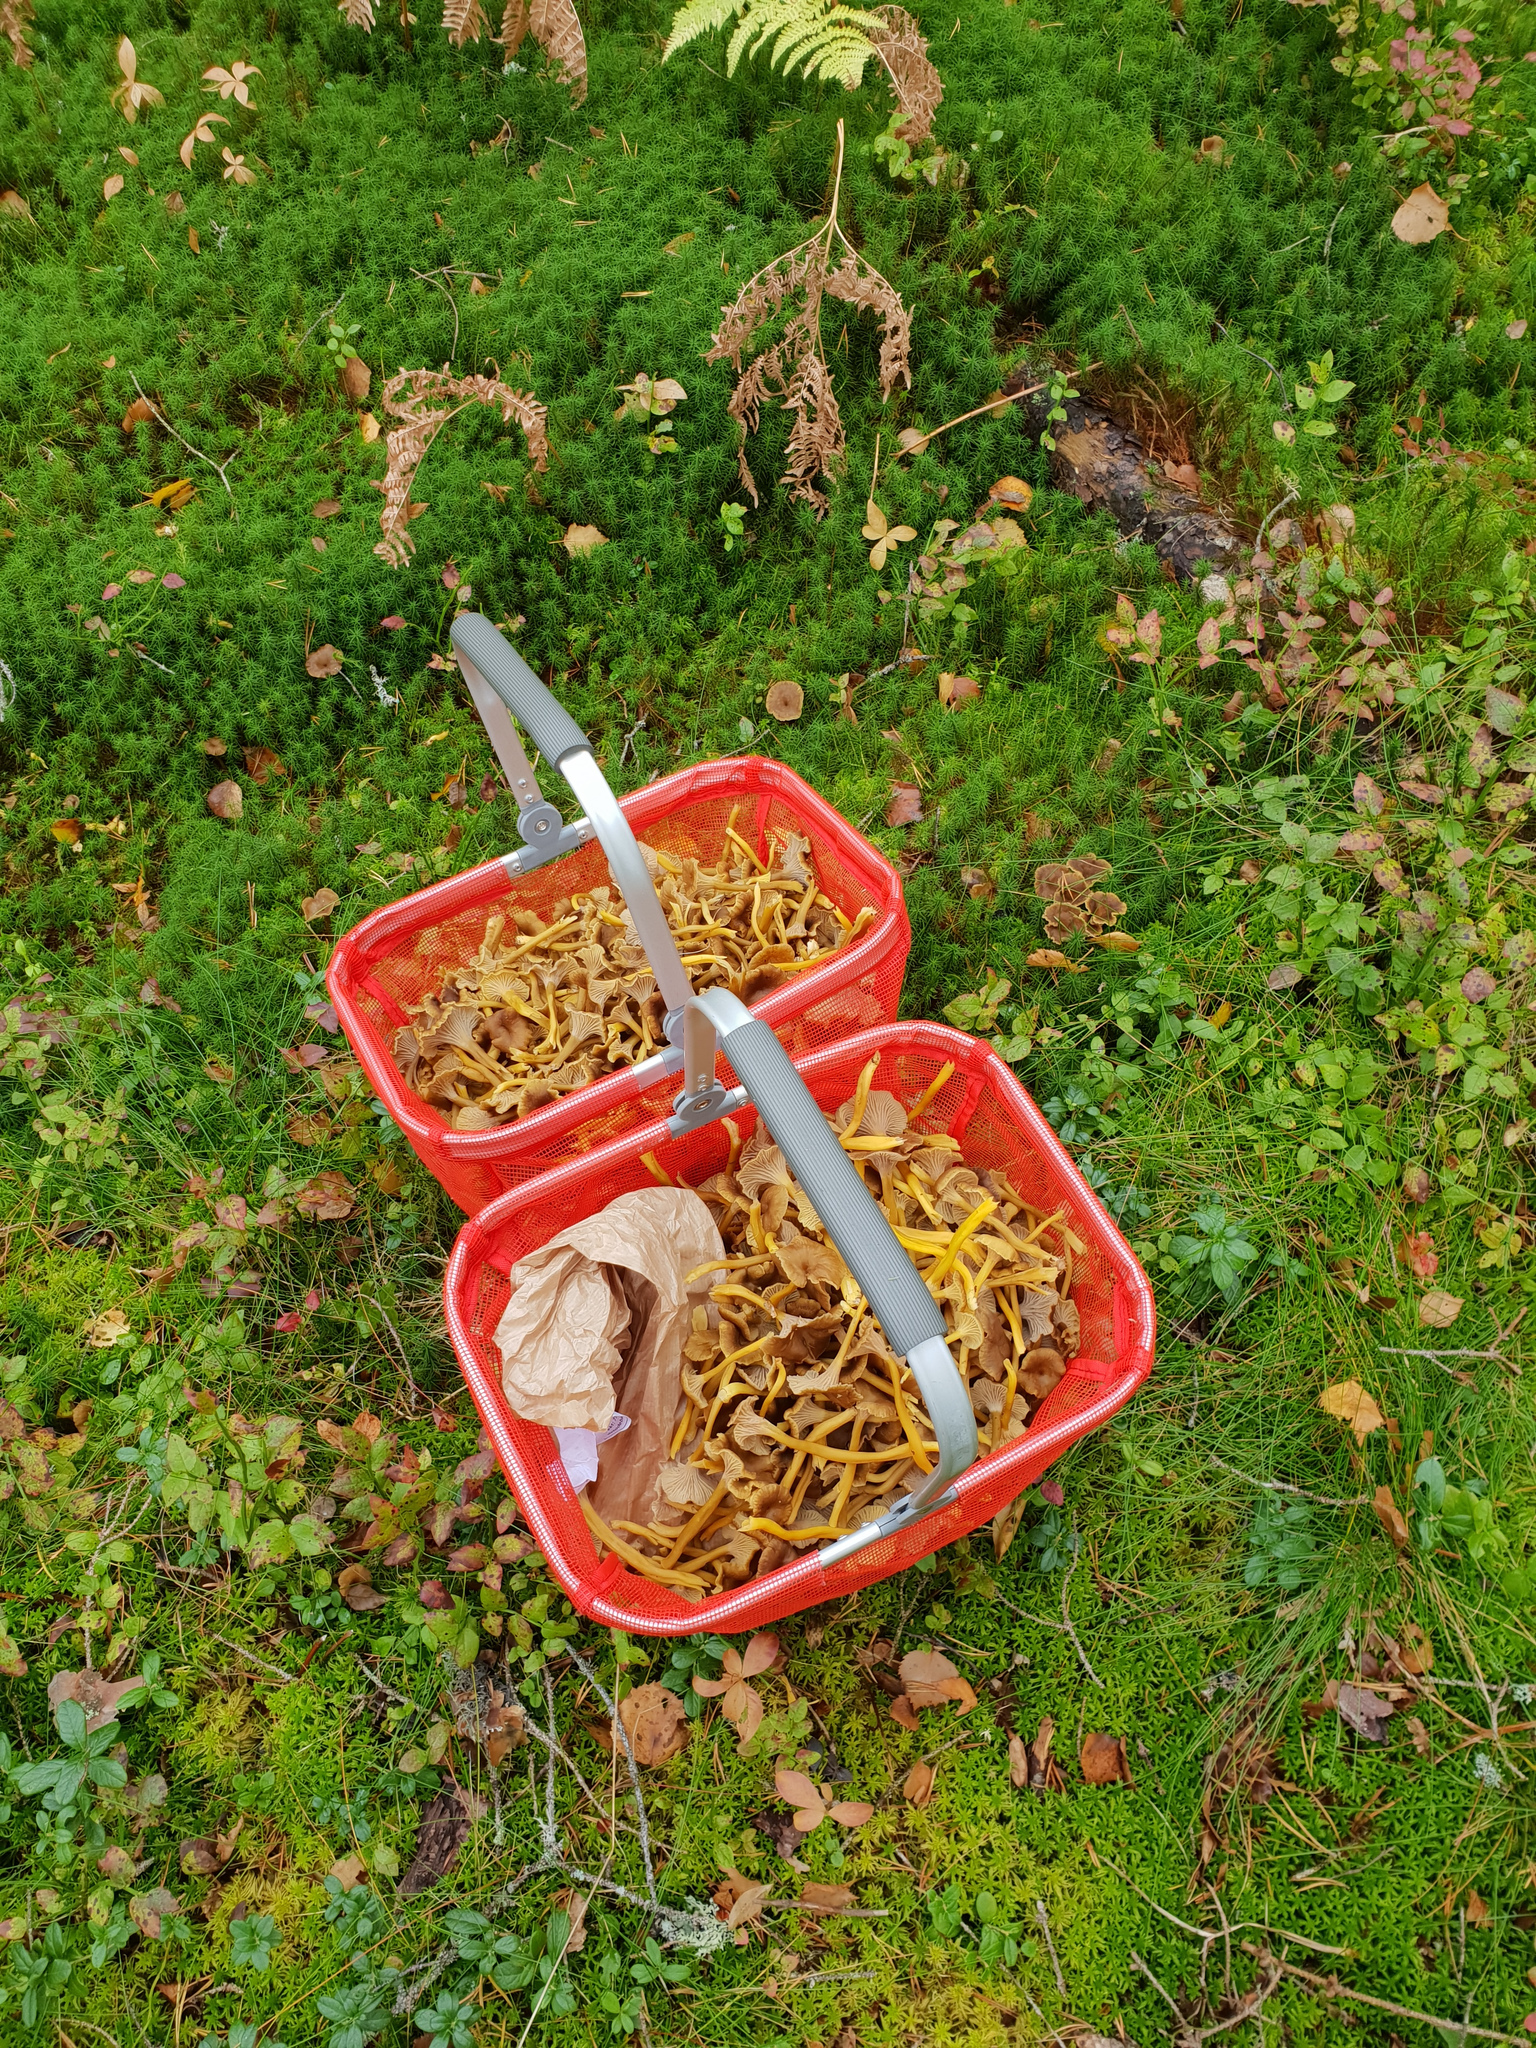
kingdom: Fungi
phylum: Basidiomycota
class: Agaricomycetes
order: Cantharellales
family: Hydnaceae
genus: Craterellus
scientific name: Craterellus tubaeformis
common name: Yellowfoot
